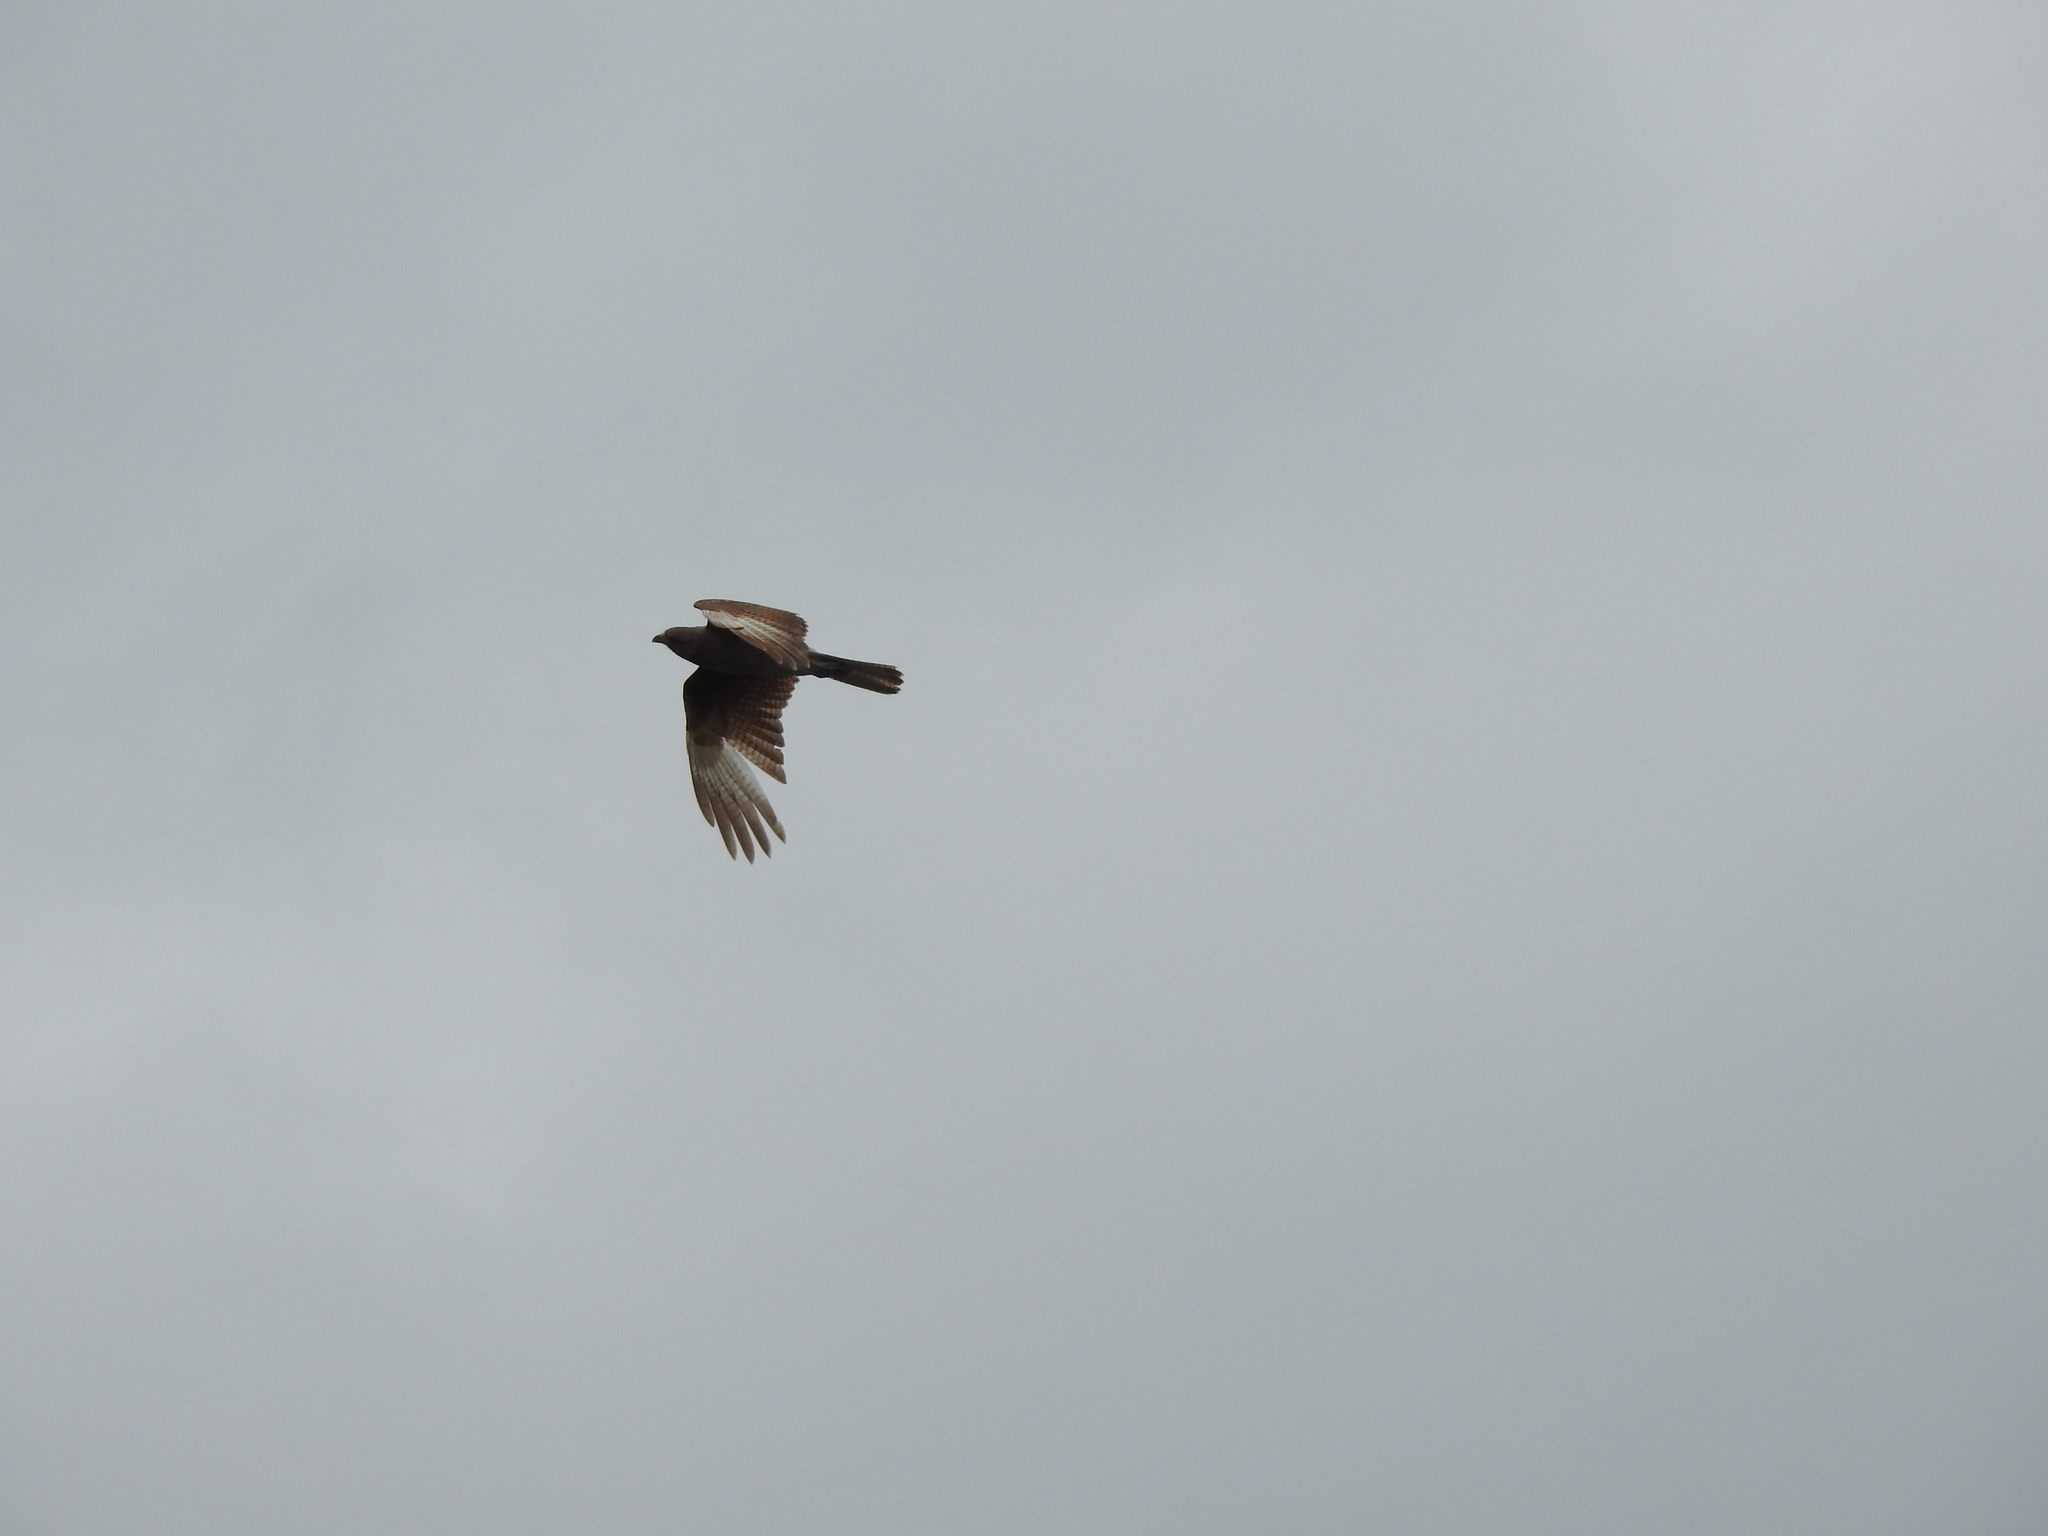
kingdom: Animalia
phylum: Chordata
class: Aves
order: Falconiformes
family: Falconidae
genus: Daptrius
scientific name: Daptrius
